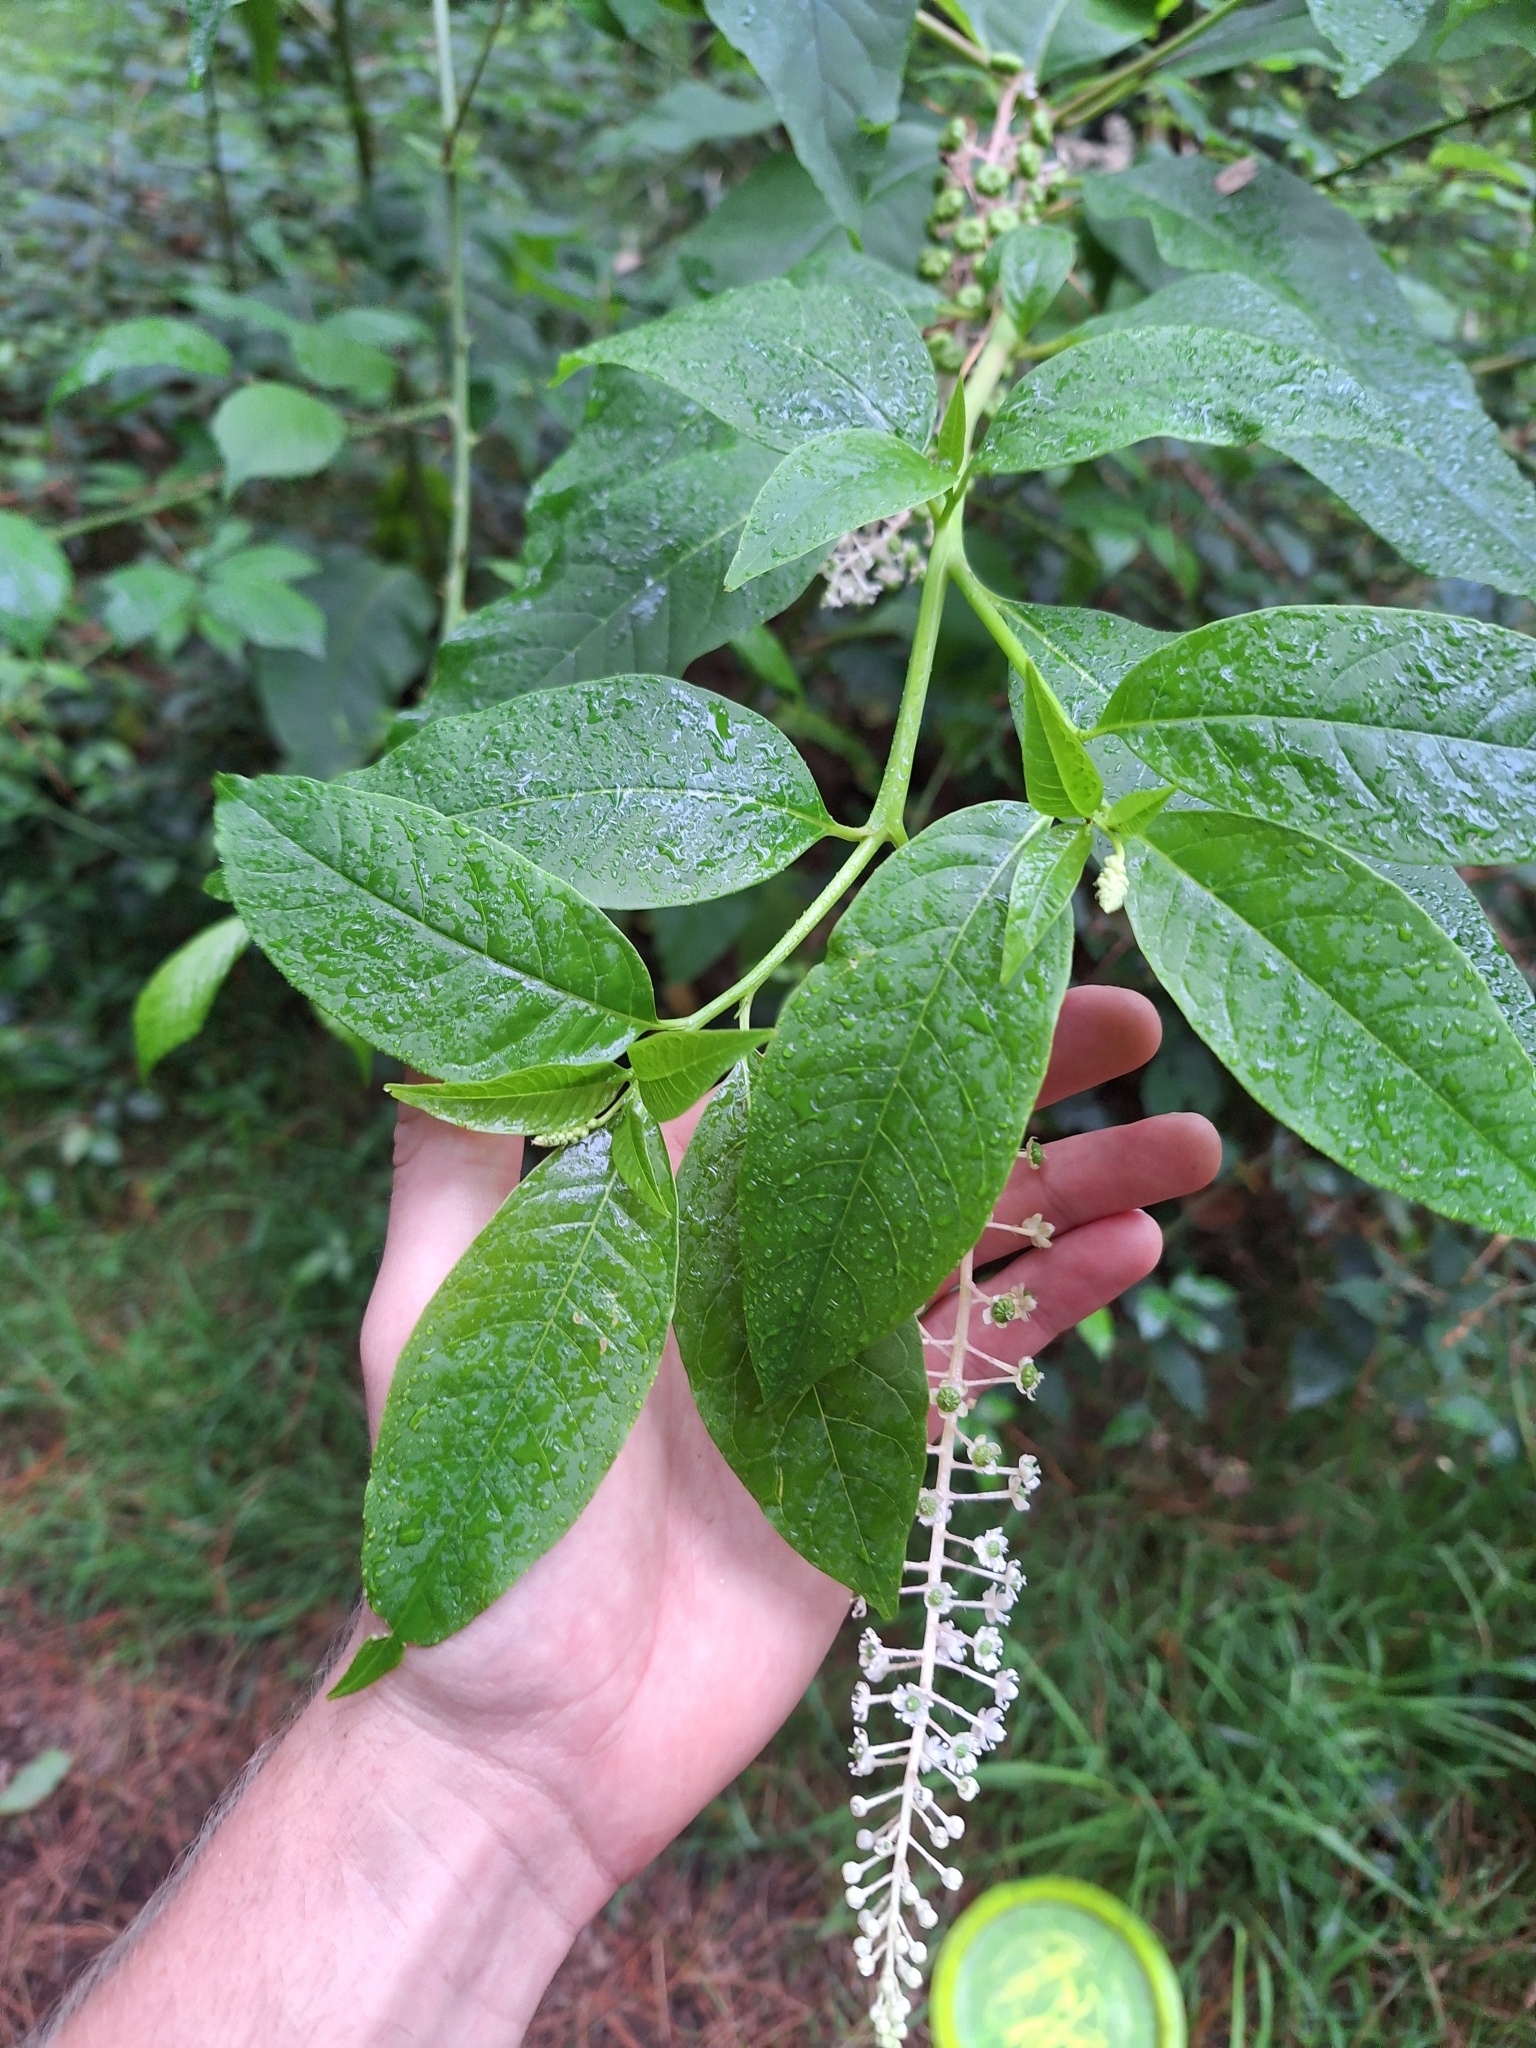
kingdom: Plantae
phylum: Tracheophyta
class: Magnoliopsida
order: Caryophyllales
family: Phytolaccaceae
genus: Phytolacca
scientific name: Phytolacca americana
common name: American pokeweed
